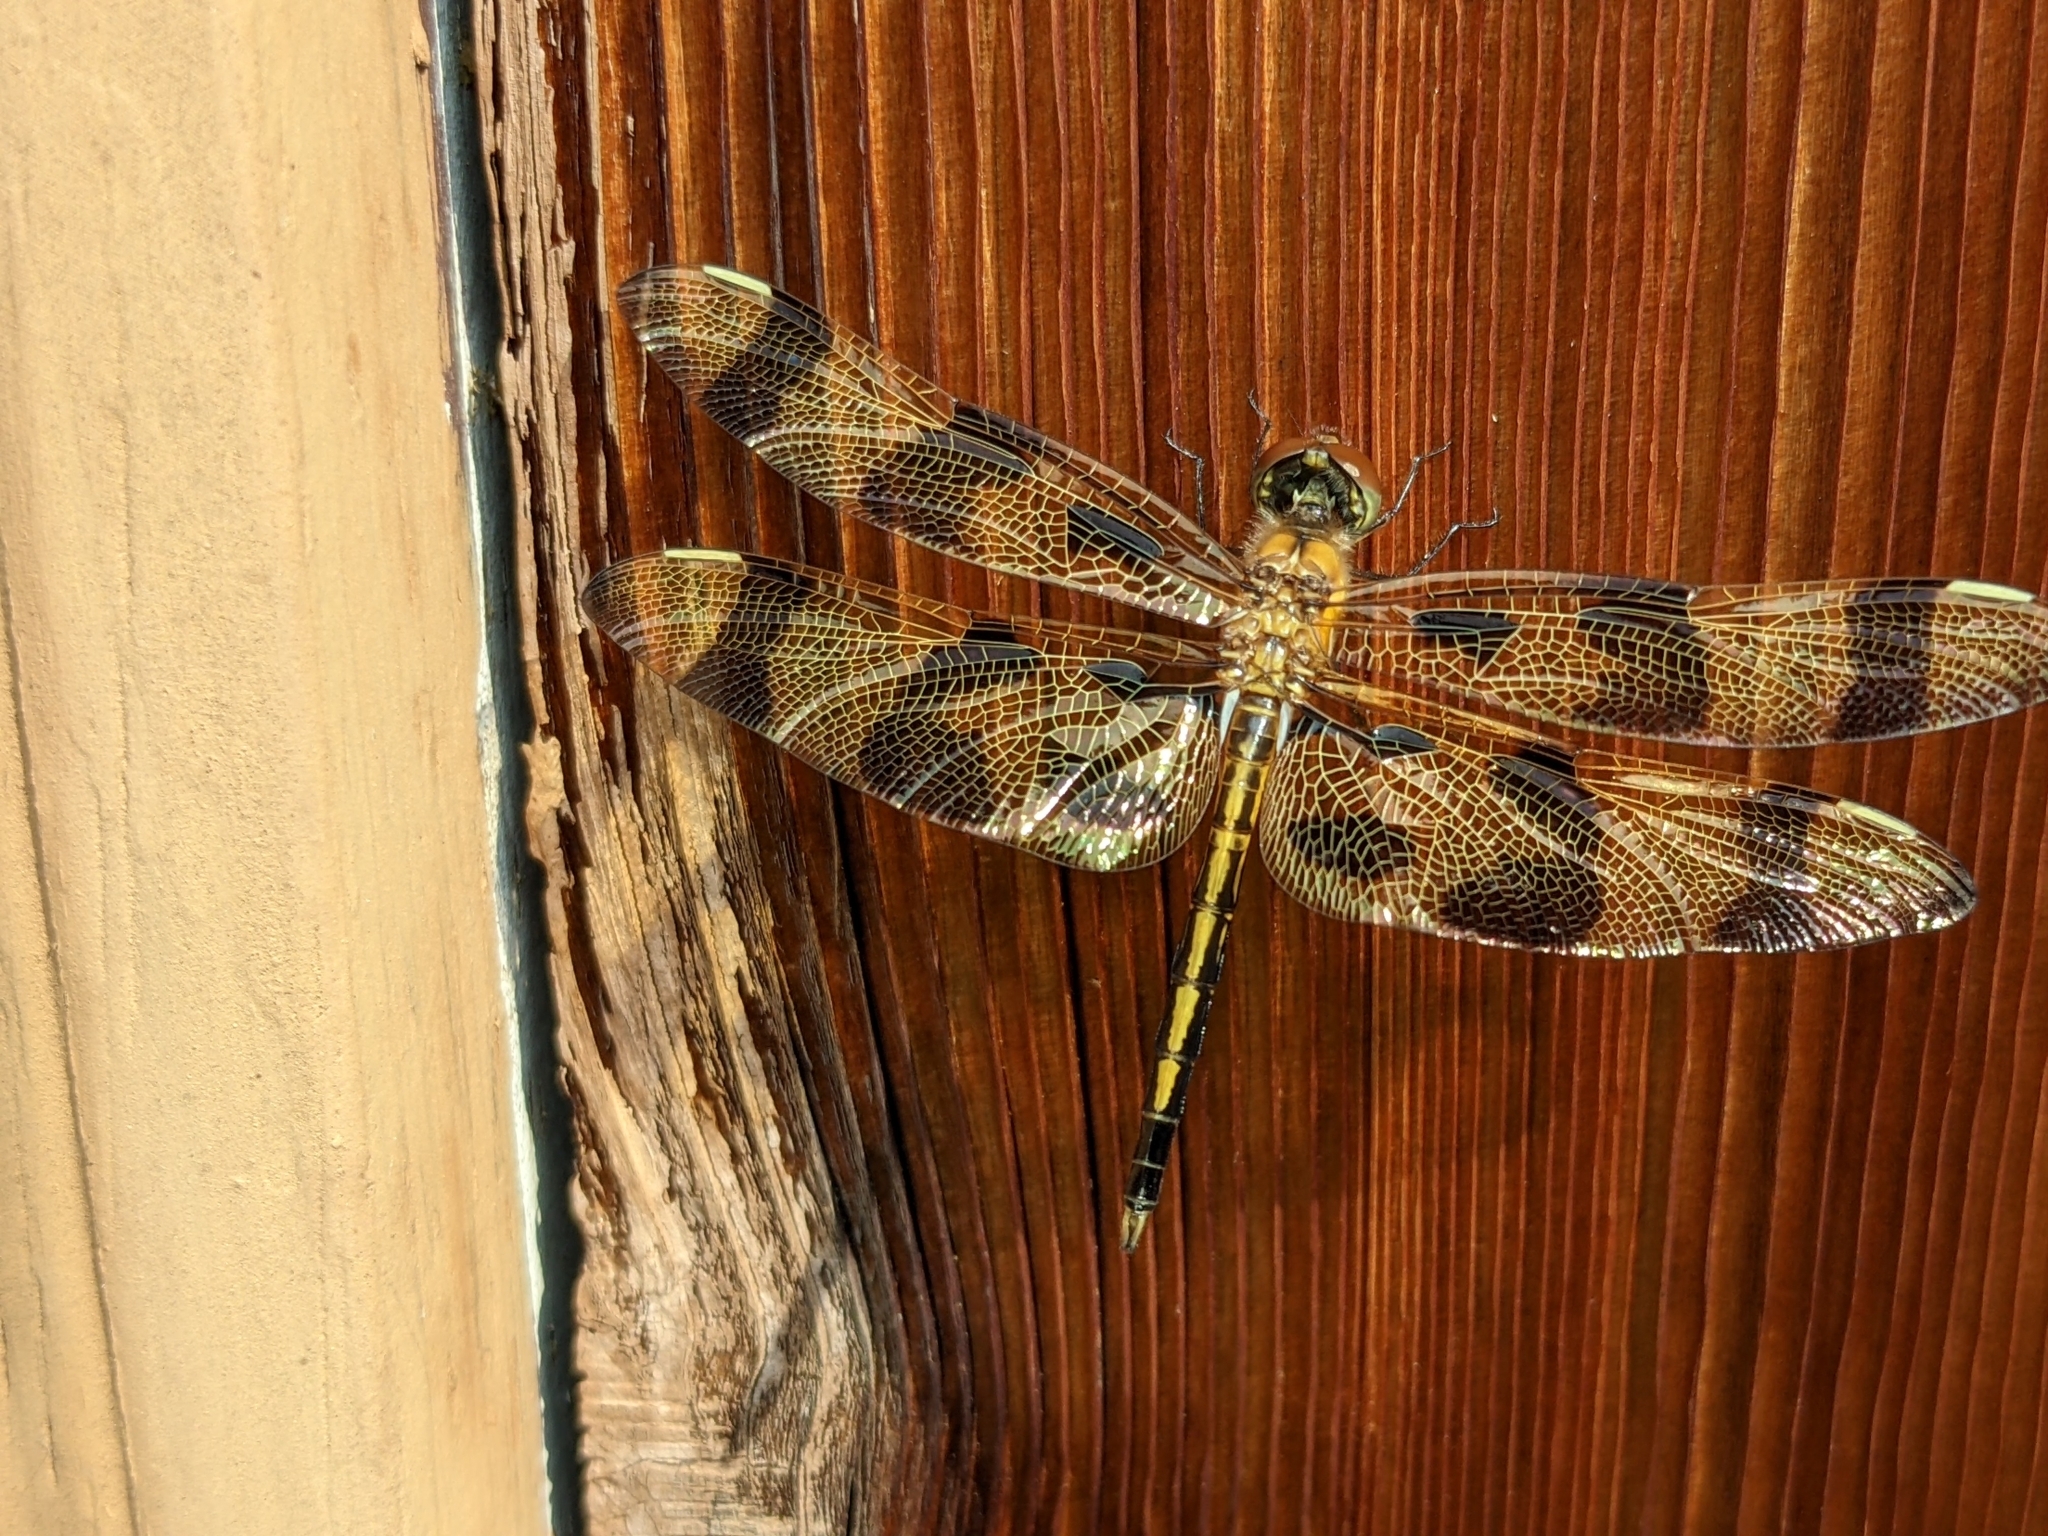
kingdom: Animalia
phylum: Arthropoda
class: Insecta
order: Odonata
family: Libellulidae
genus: Celithemis
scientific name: Celithemis eponina
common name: Halloween pennant
